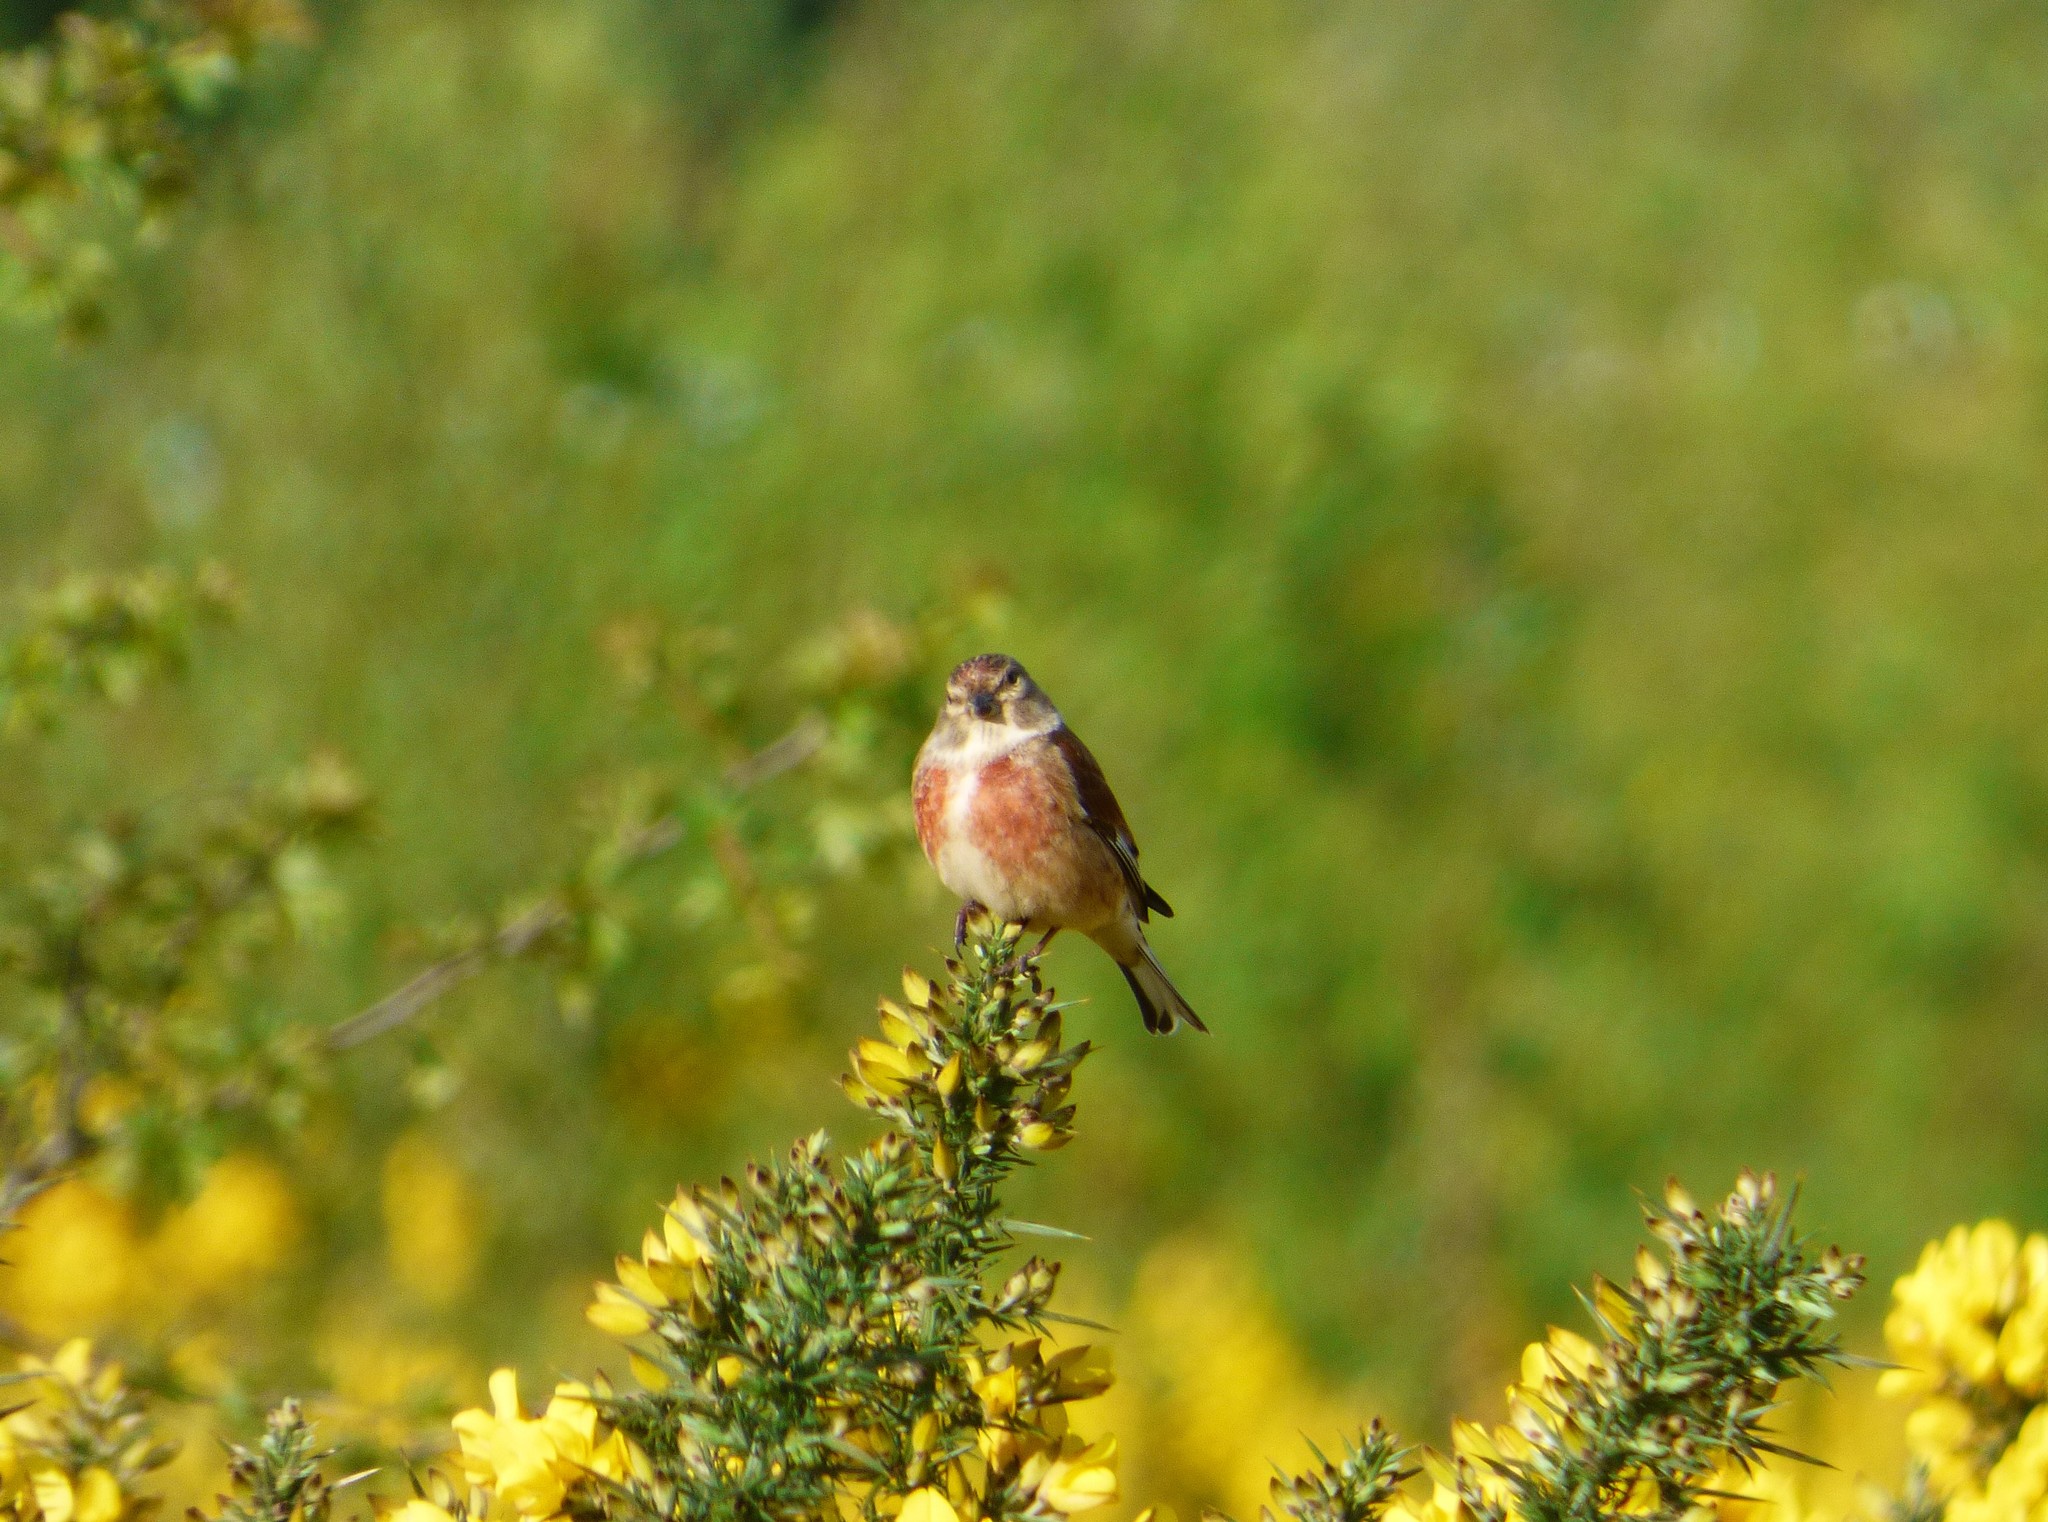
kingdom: Animalia
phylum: Chordata
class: Aves
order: Passeriformes
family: Fringillidae
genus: Linaria
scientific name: Linaria cannabina
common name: Common linnet
